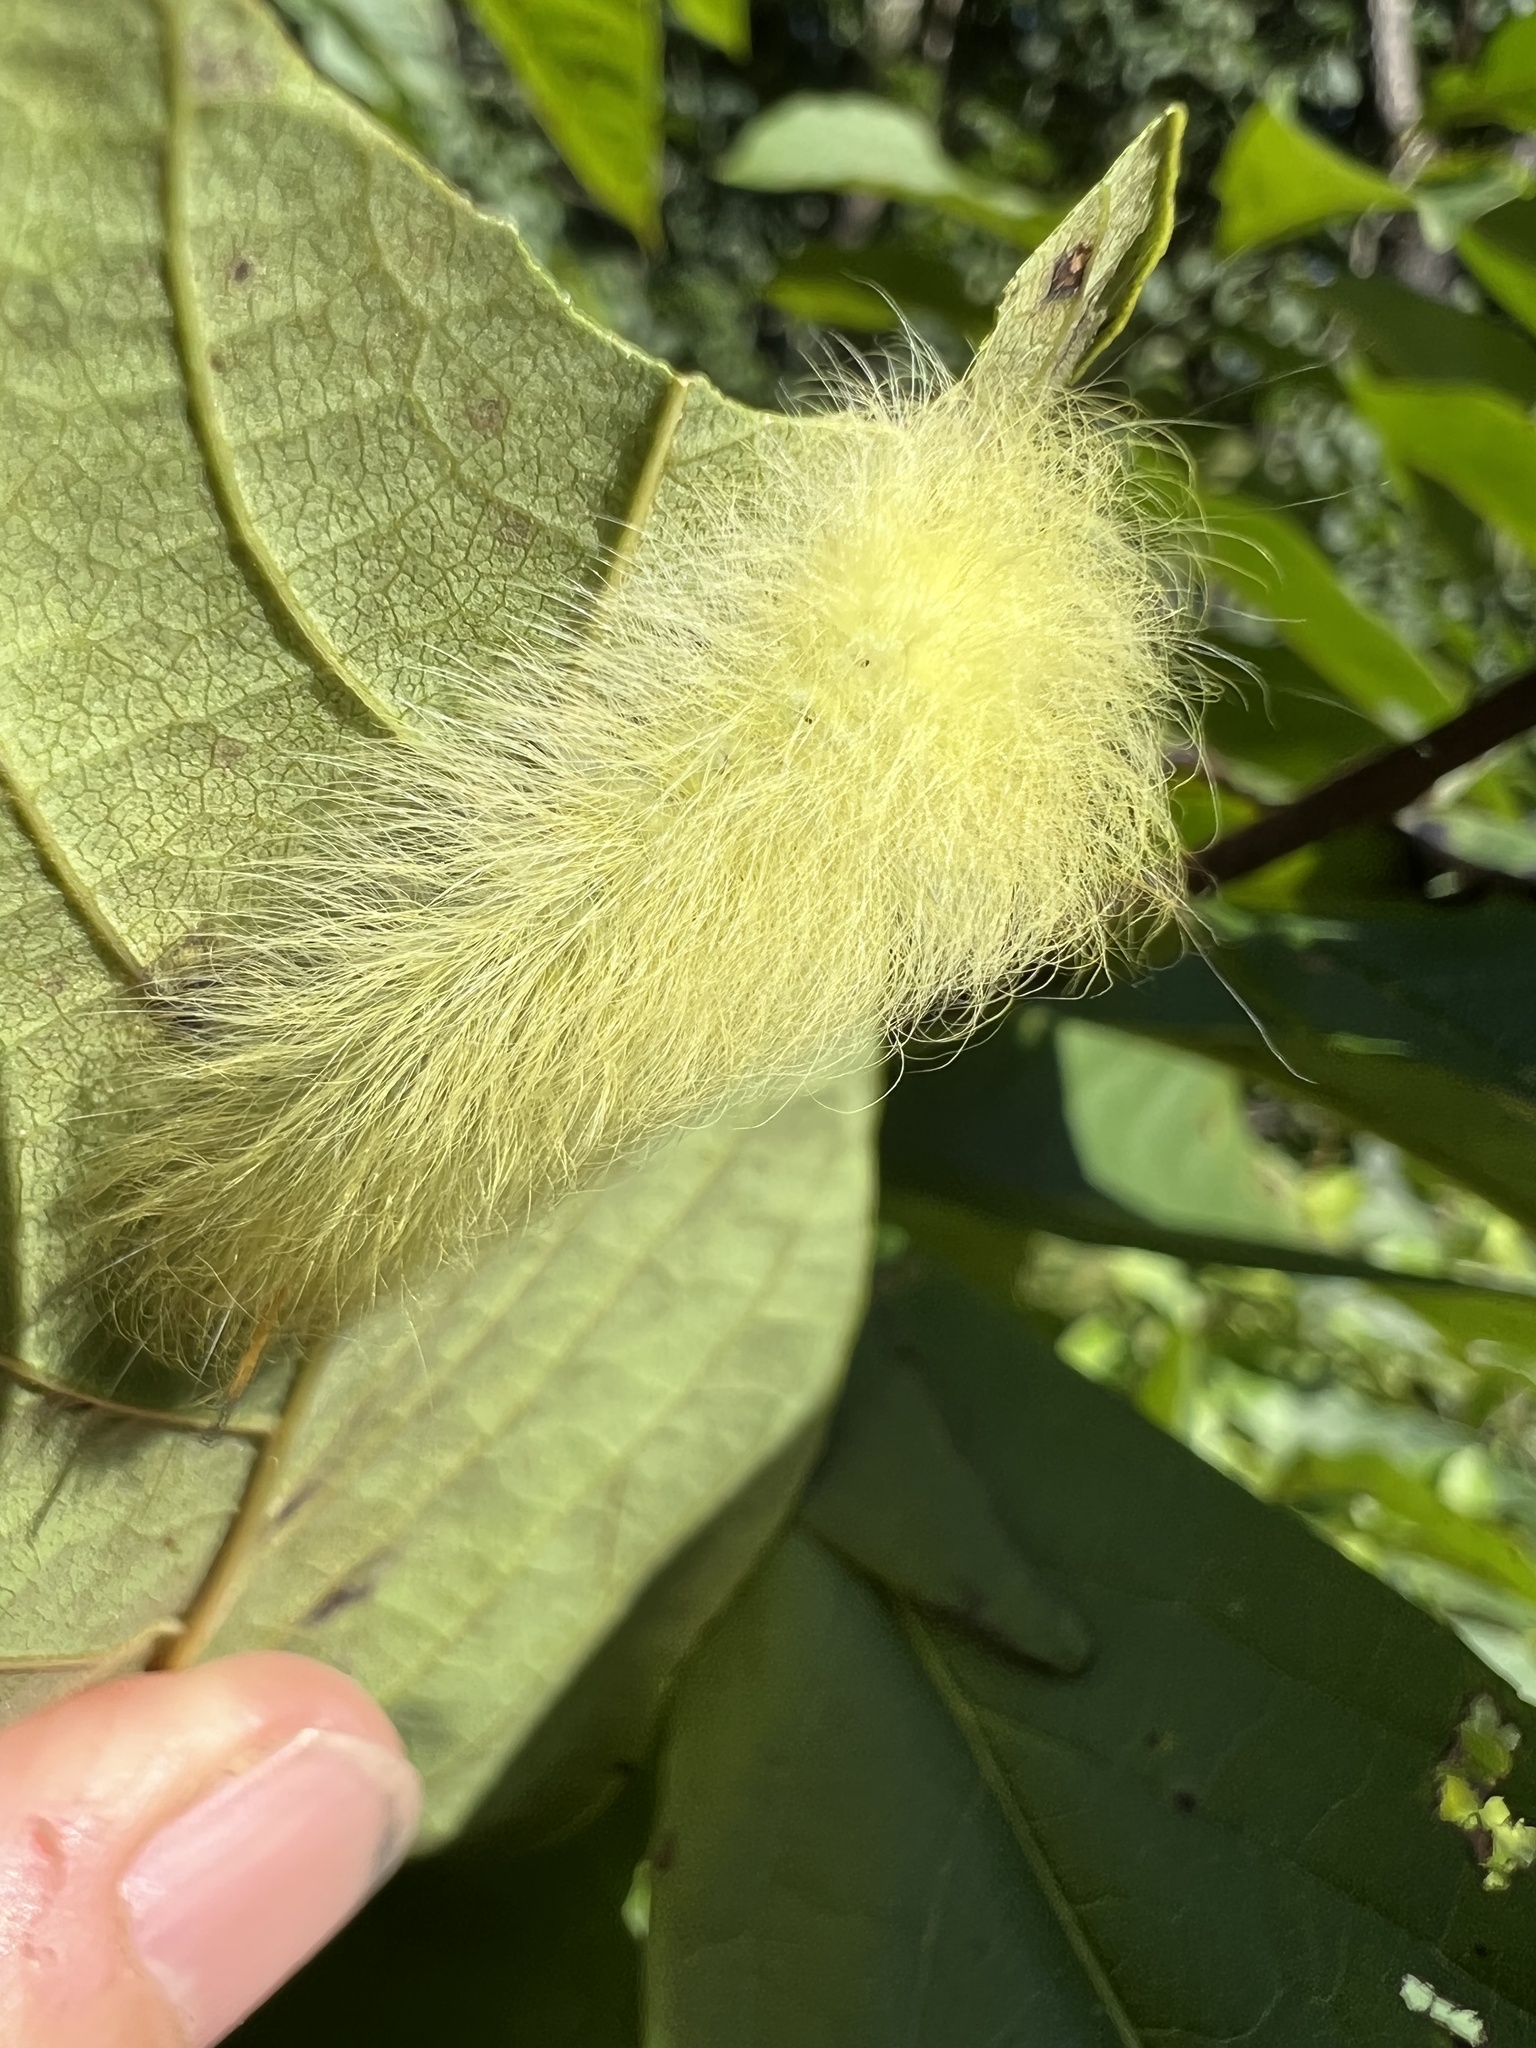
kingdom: Animalia
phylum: Arthropoda
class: Insecta
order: Lepidoptera
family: Apatelodidae
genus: Hygrochroa
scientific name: Hygrochroa Apatelodes torrefacta
